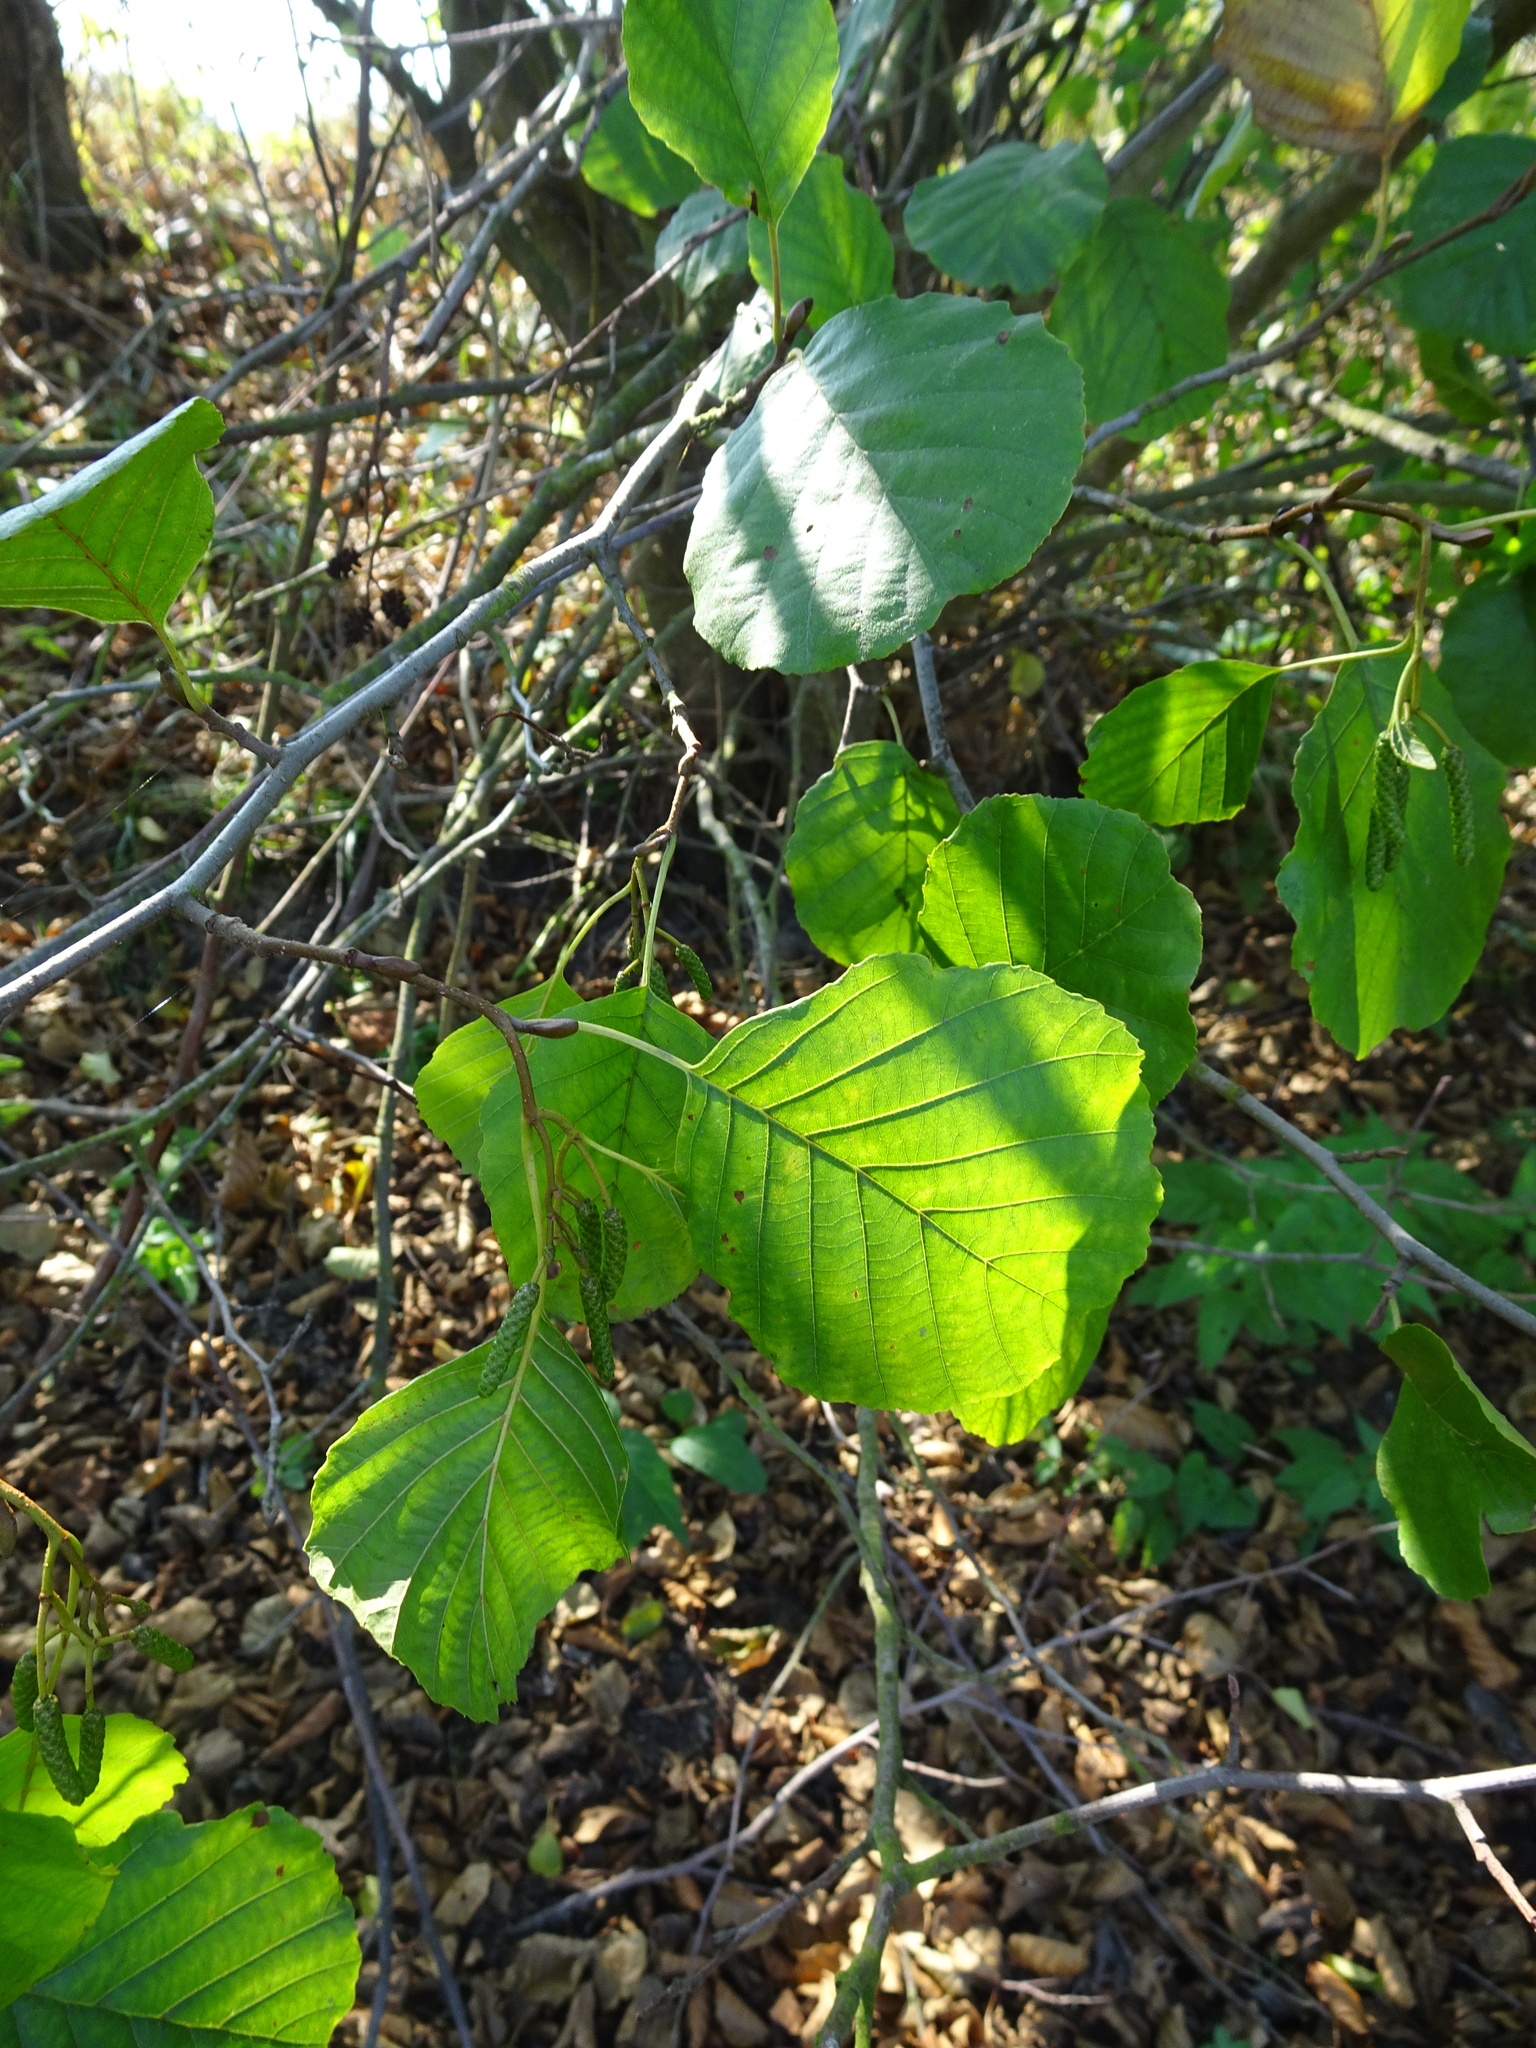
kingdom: Plantae
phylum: Tracheophyta
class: Magnoliopsida
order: Fagales
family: Betulaceae
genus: Alnus
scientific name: Alnus glutinosa
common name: Black alder
